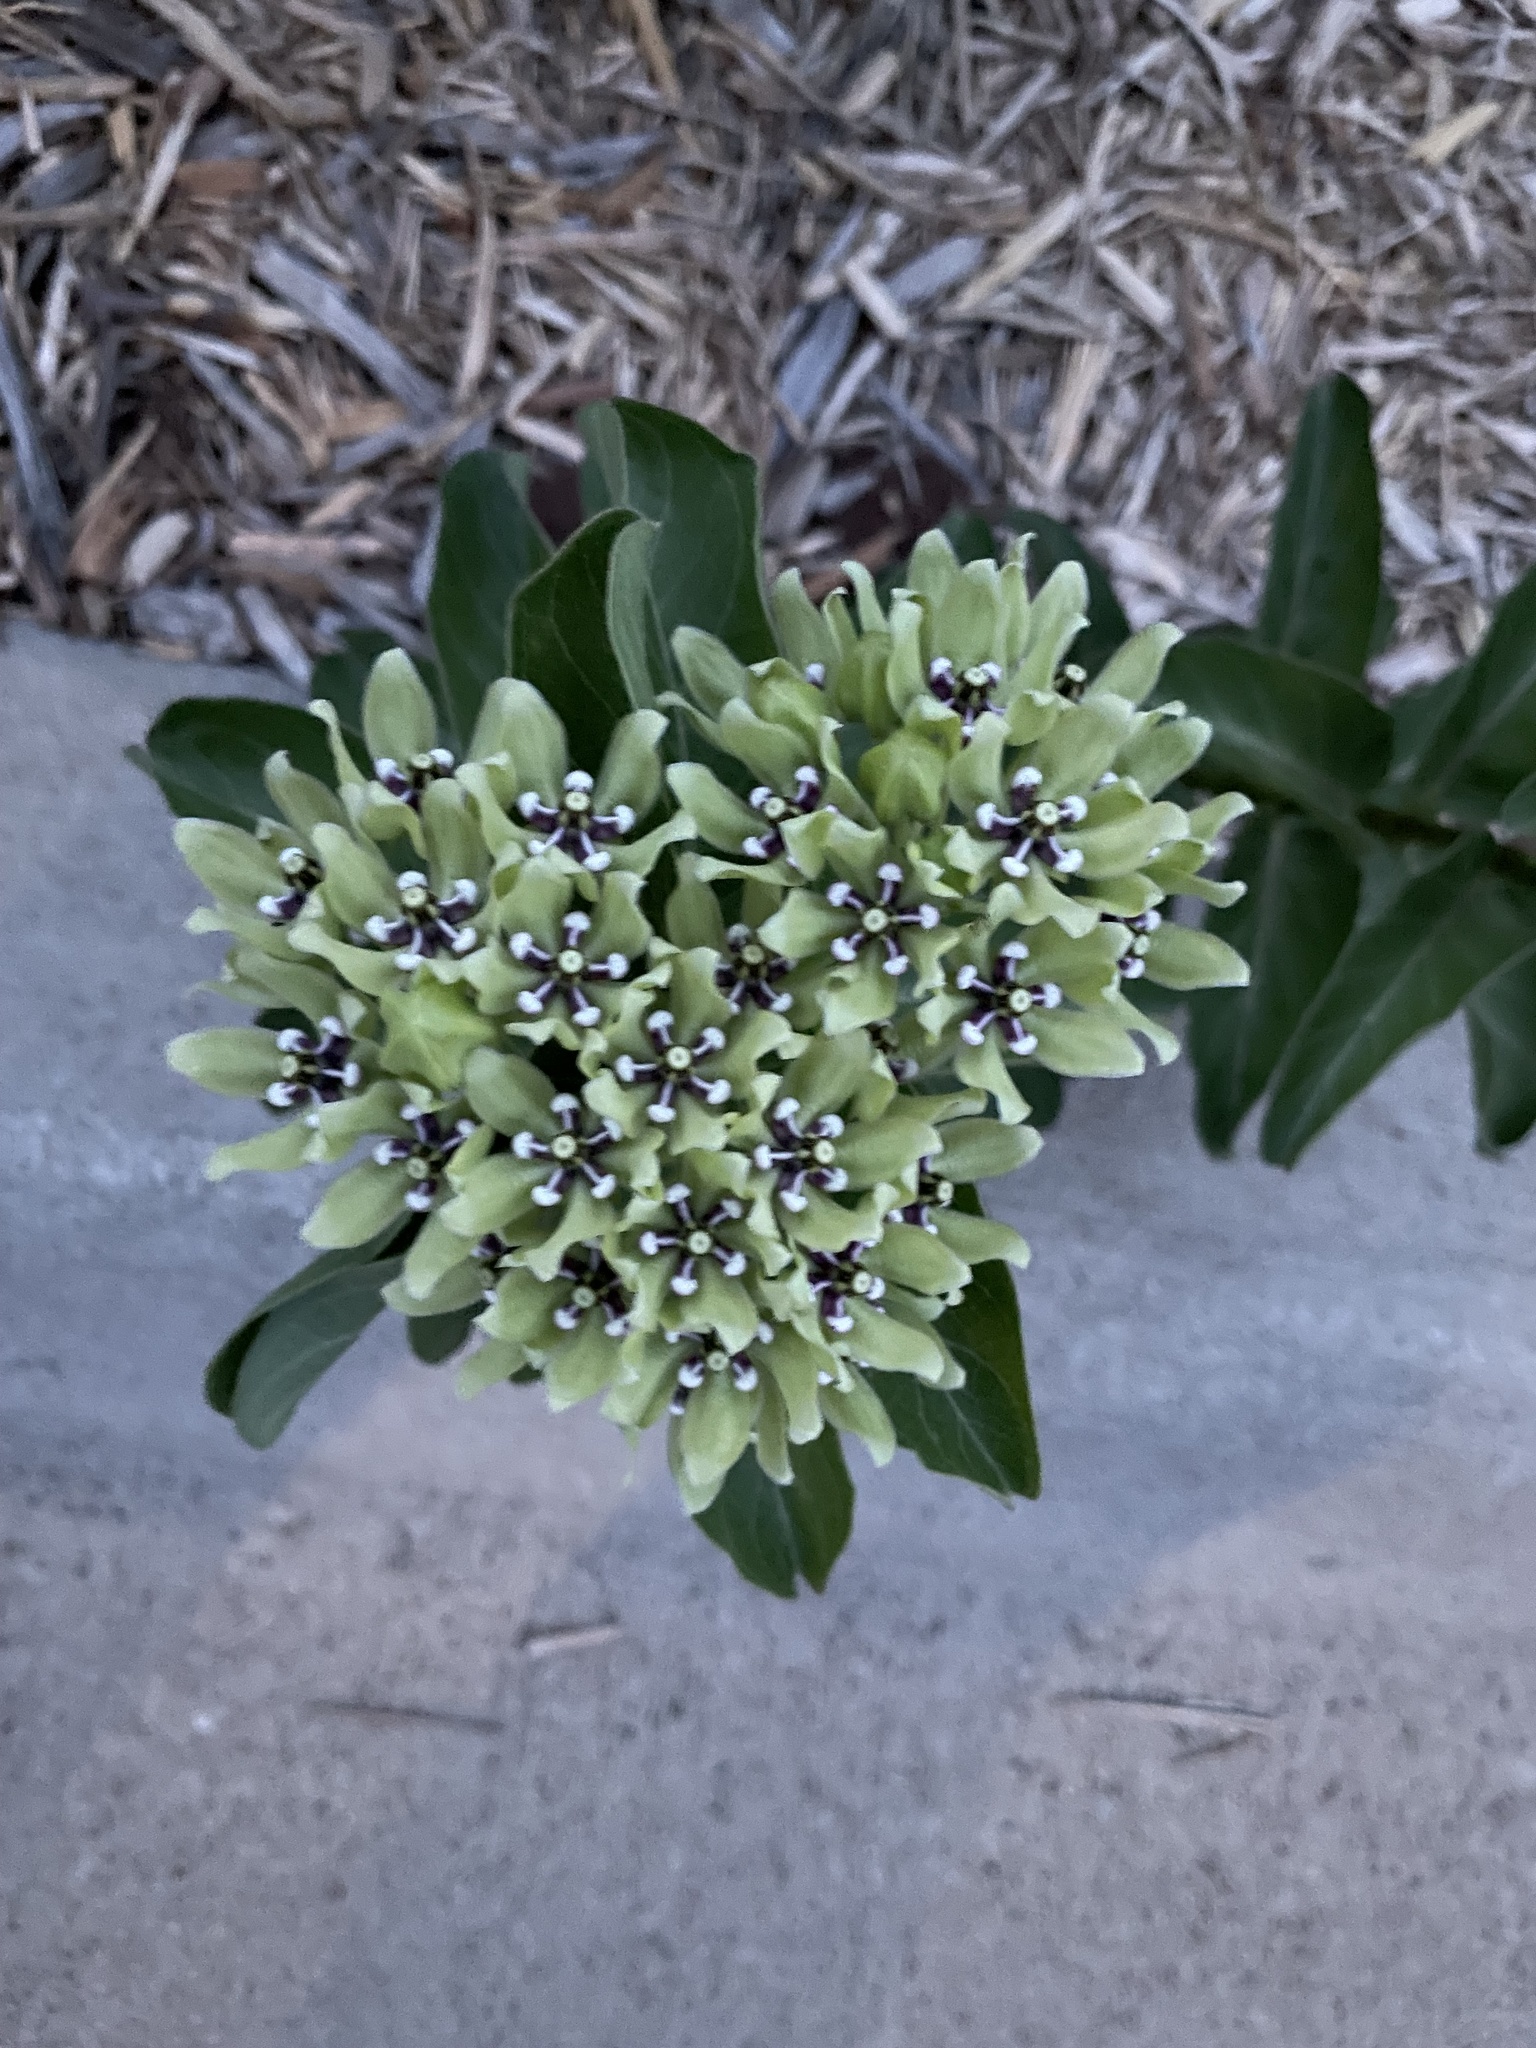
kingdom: Plantae
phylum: Tracheophyta
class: Magnoliopsida
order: Gentianales
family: Apocynaceae
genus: Asclepias
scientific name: Asclepias viridis
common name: Antelope-horns
